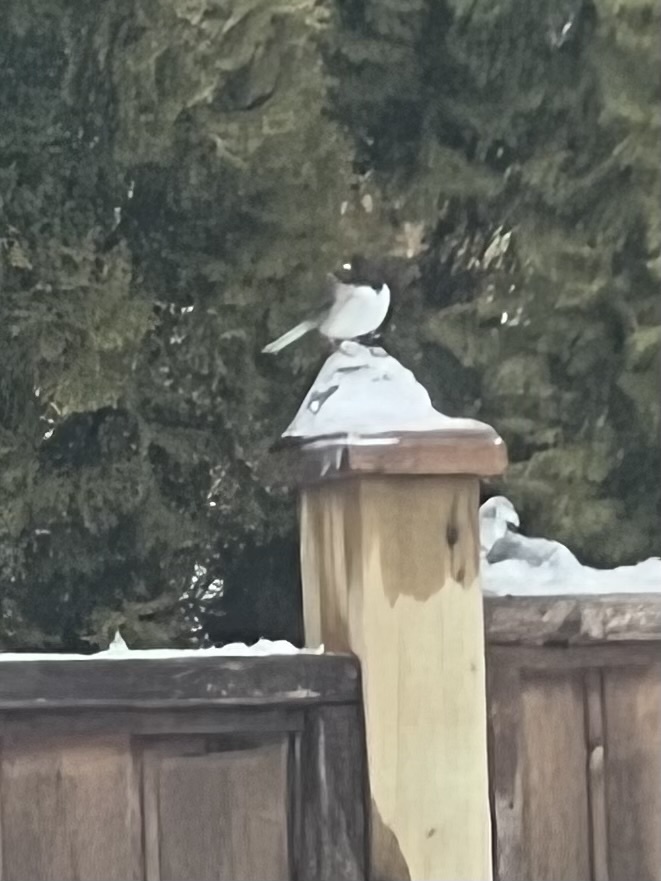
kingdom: Animalia
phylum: Chordata
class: Aves
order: Passeriformes
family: Passerellidae
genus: Junco
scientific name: Junco hyemalis
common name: Dark-eyed junco
